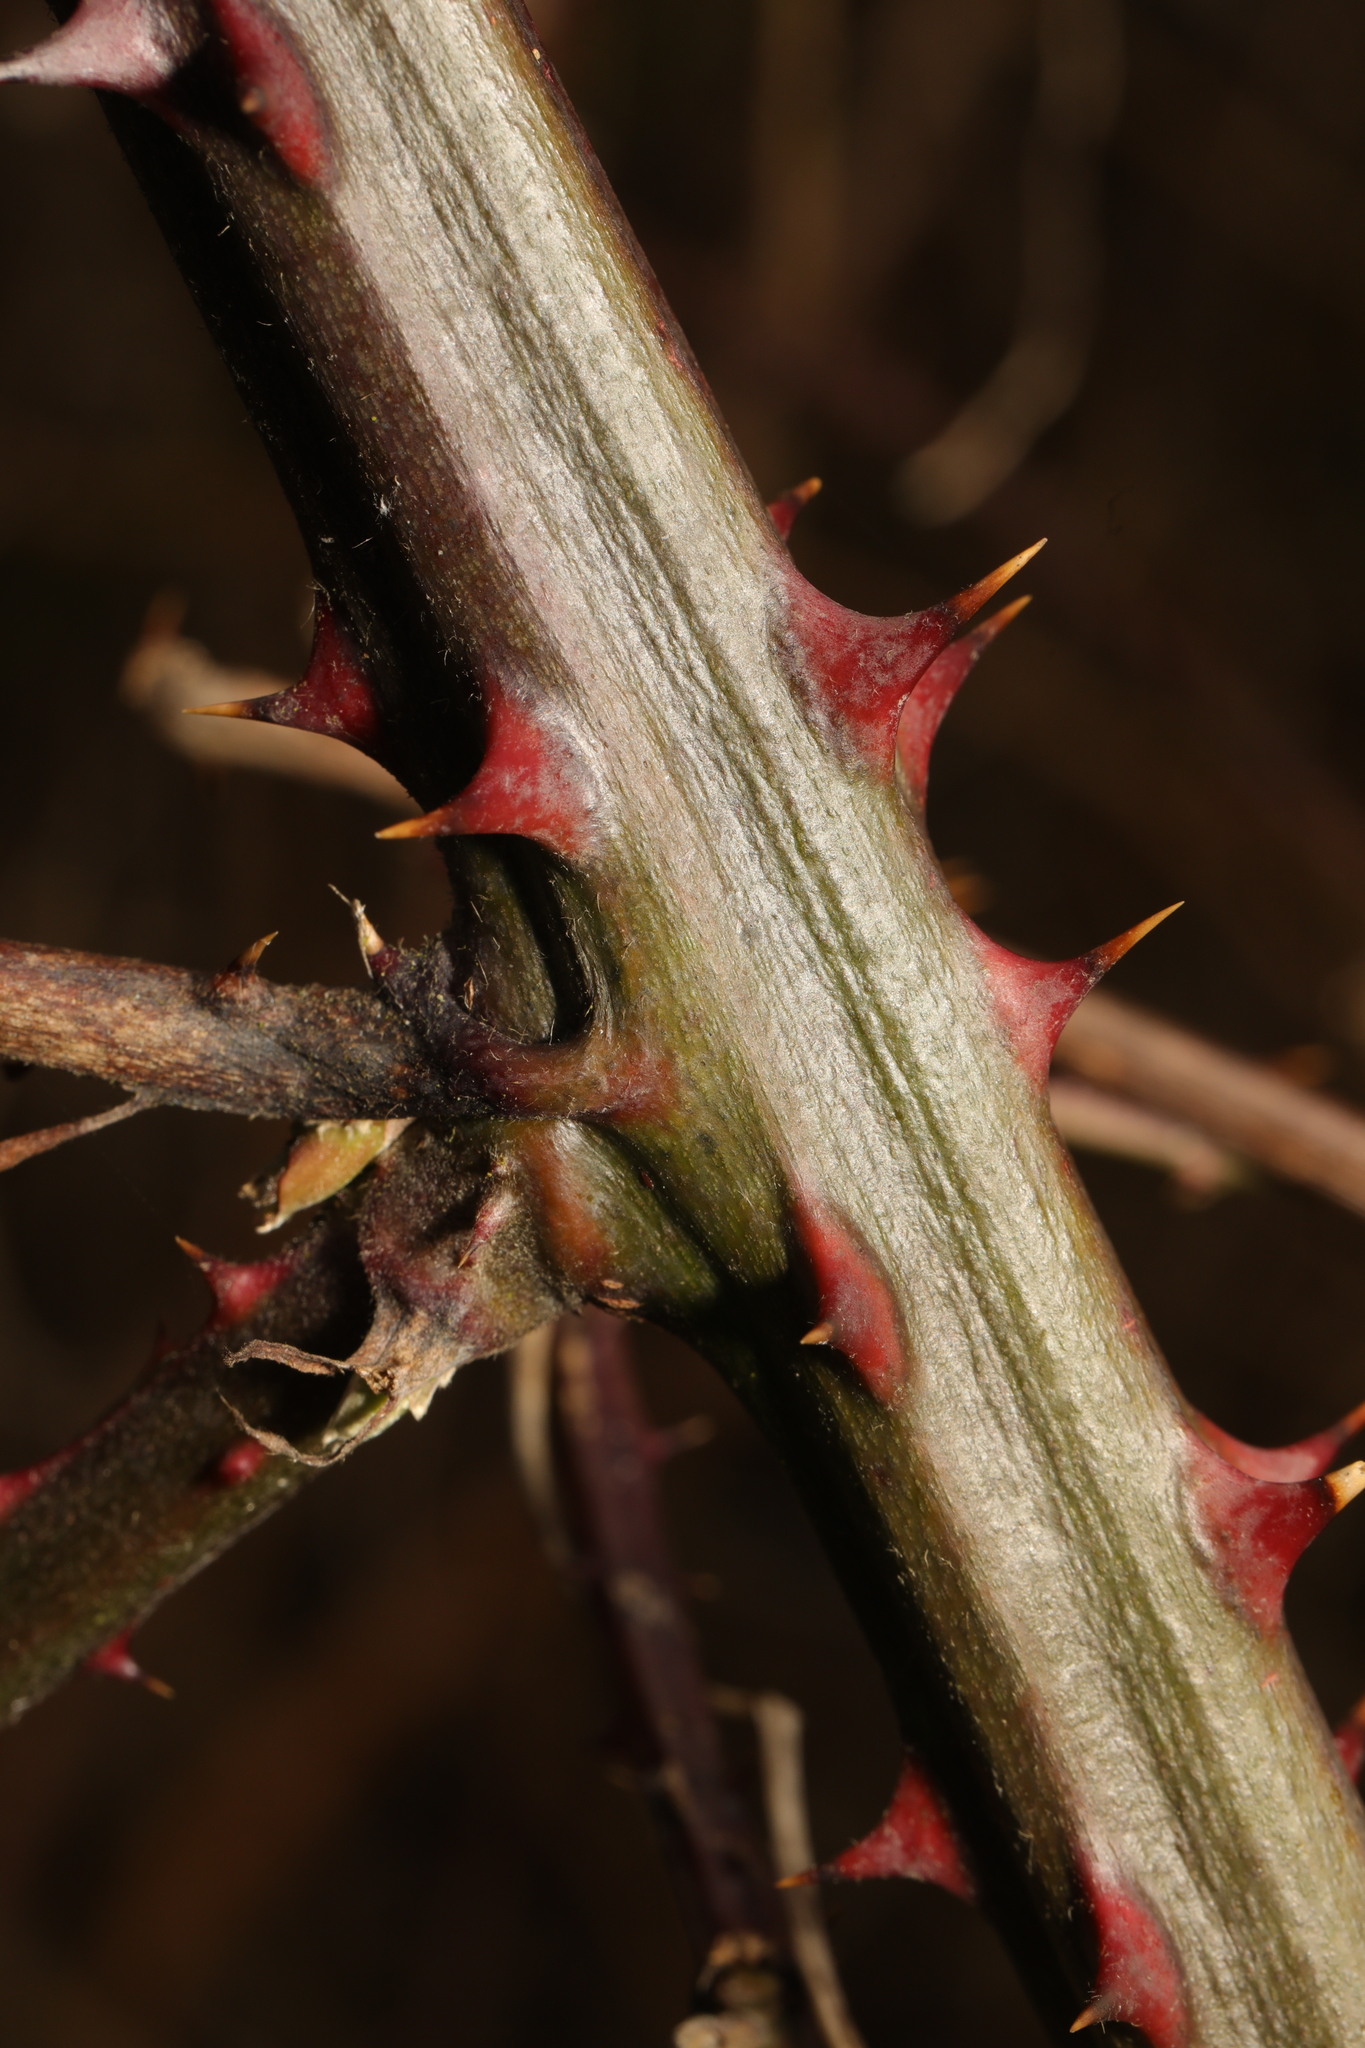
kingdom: Plantae
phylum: Tracheophyta
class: Magnoliopsida
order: Rosales
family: Rosaceae
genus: Rubus
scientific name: Rubus armeniacus
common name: Himalayan blackberry
